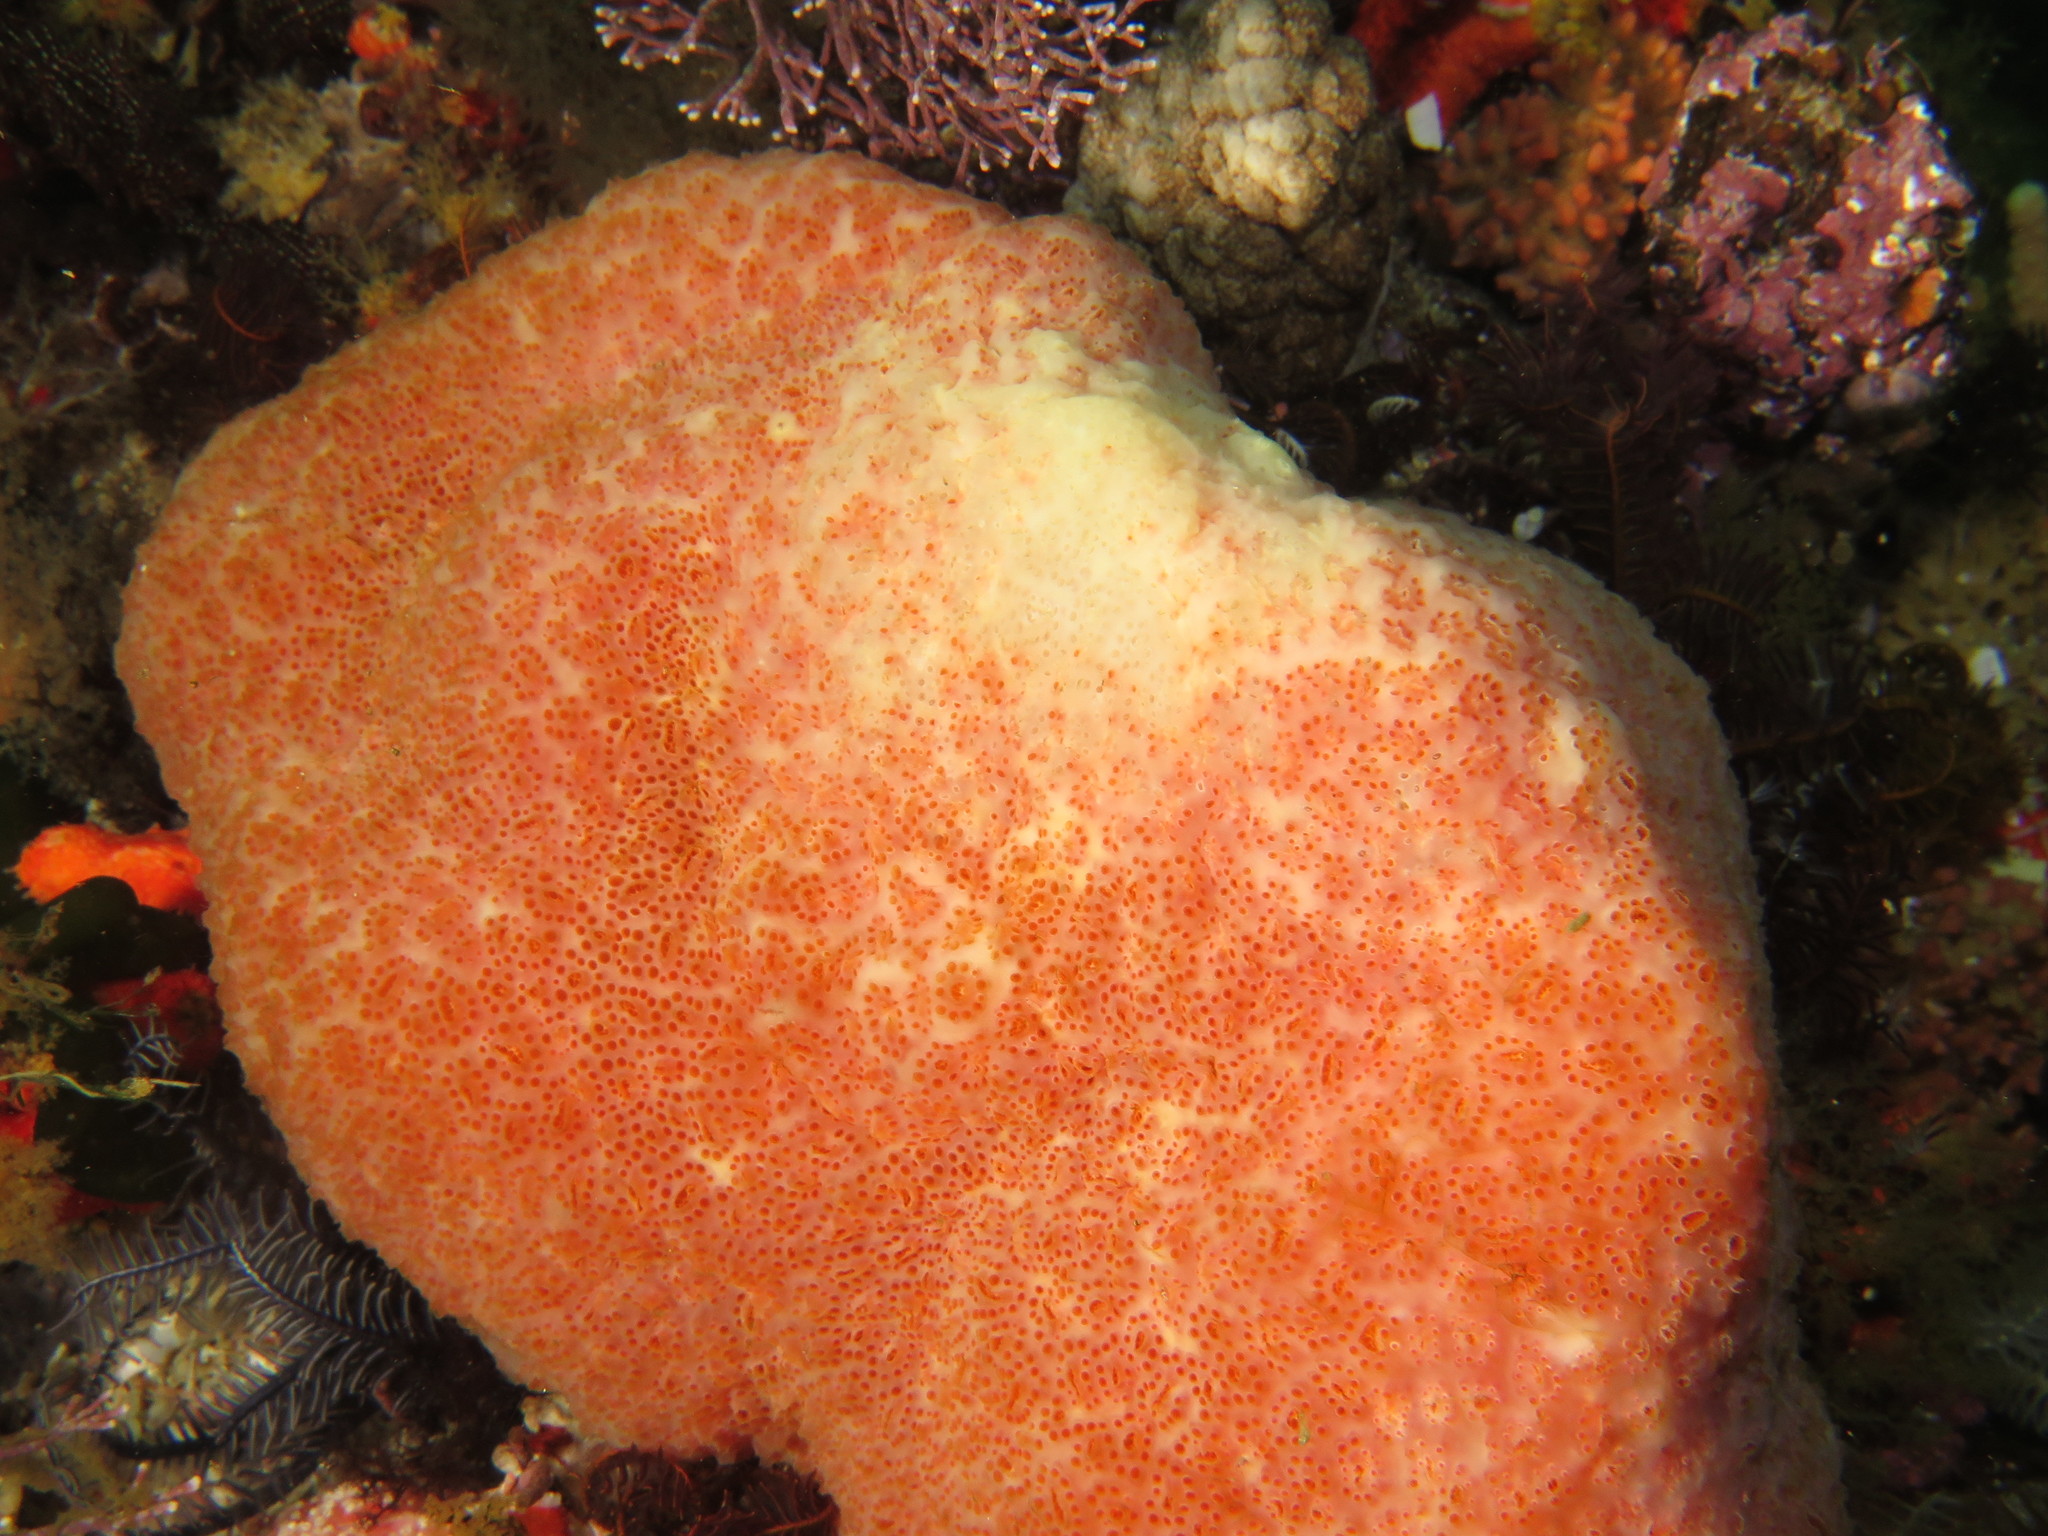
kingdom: Animalia
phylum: Chordata
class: Ascidiacea
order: Aplousobranchia
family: Polyclinidae
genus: Aplidium
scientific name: Aplidium flavolineatum
